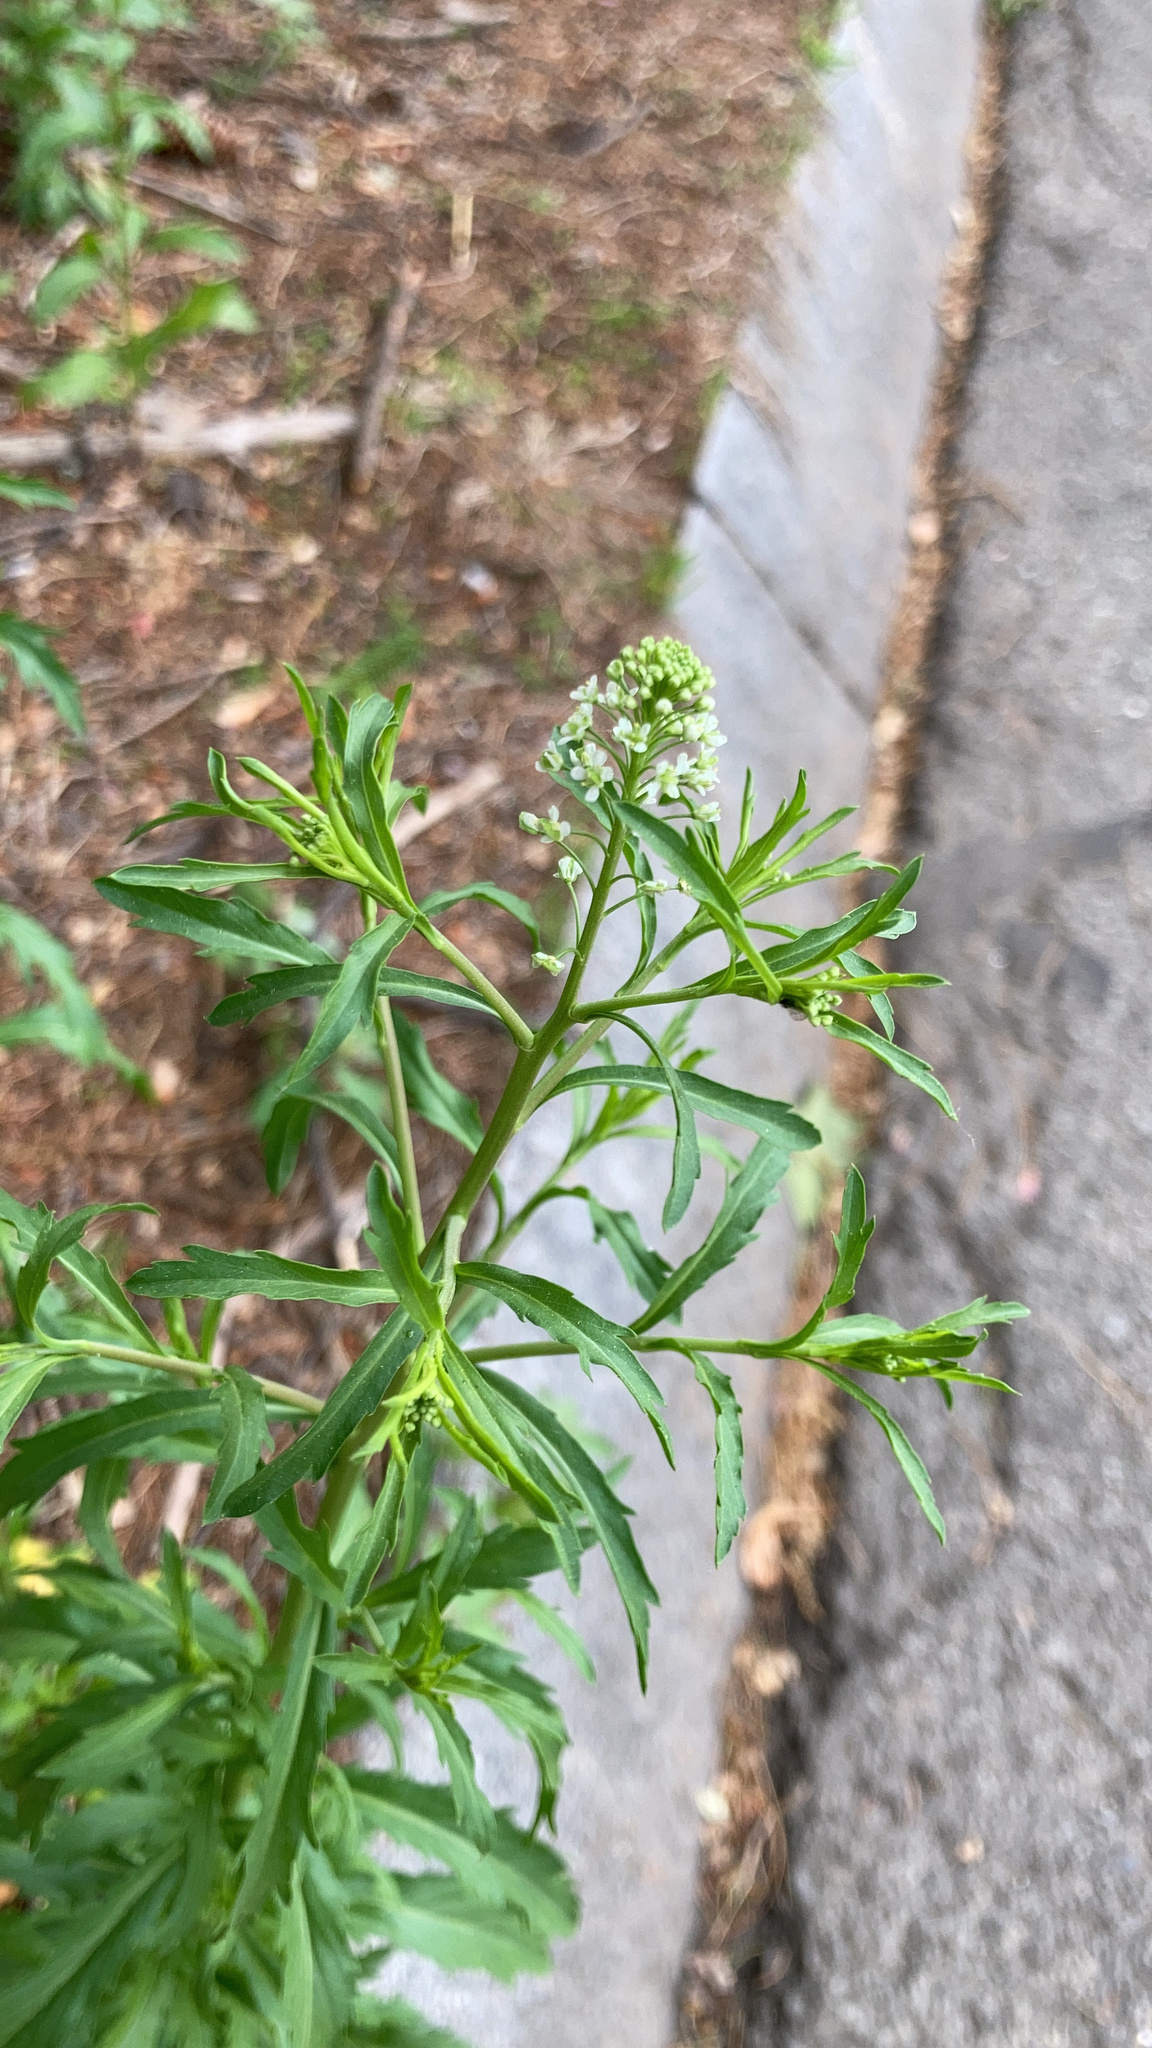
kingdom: Plantae
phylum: Tracheophyta
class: Magnoliopsida
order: Brassicales
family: Brassicaceae
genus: Lepidium
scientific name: Lepidium virginicum
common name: Least pepperwort
